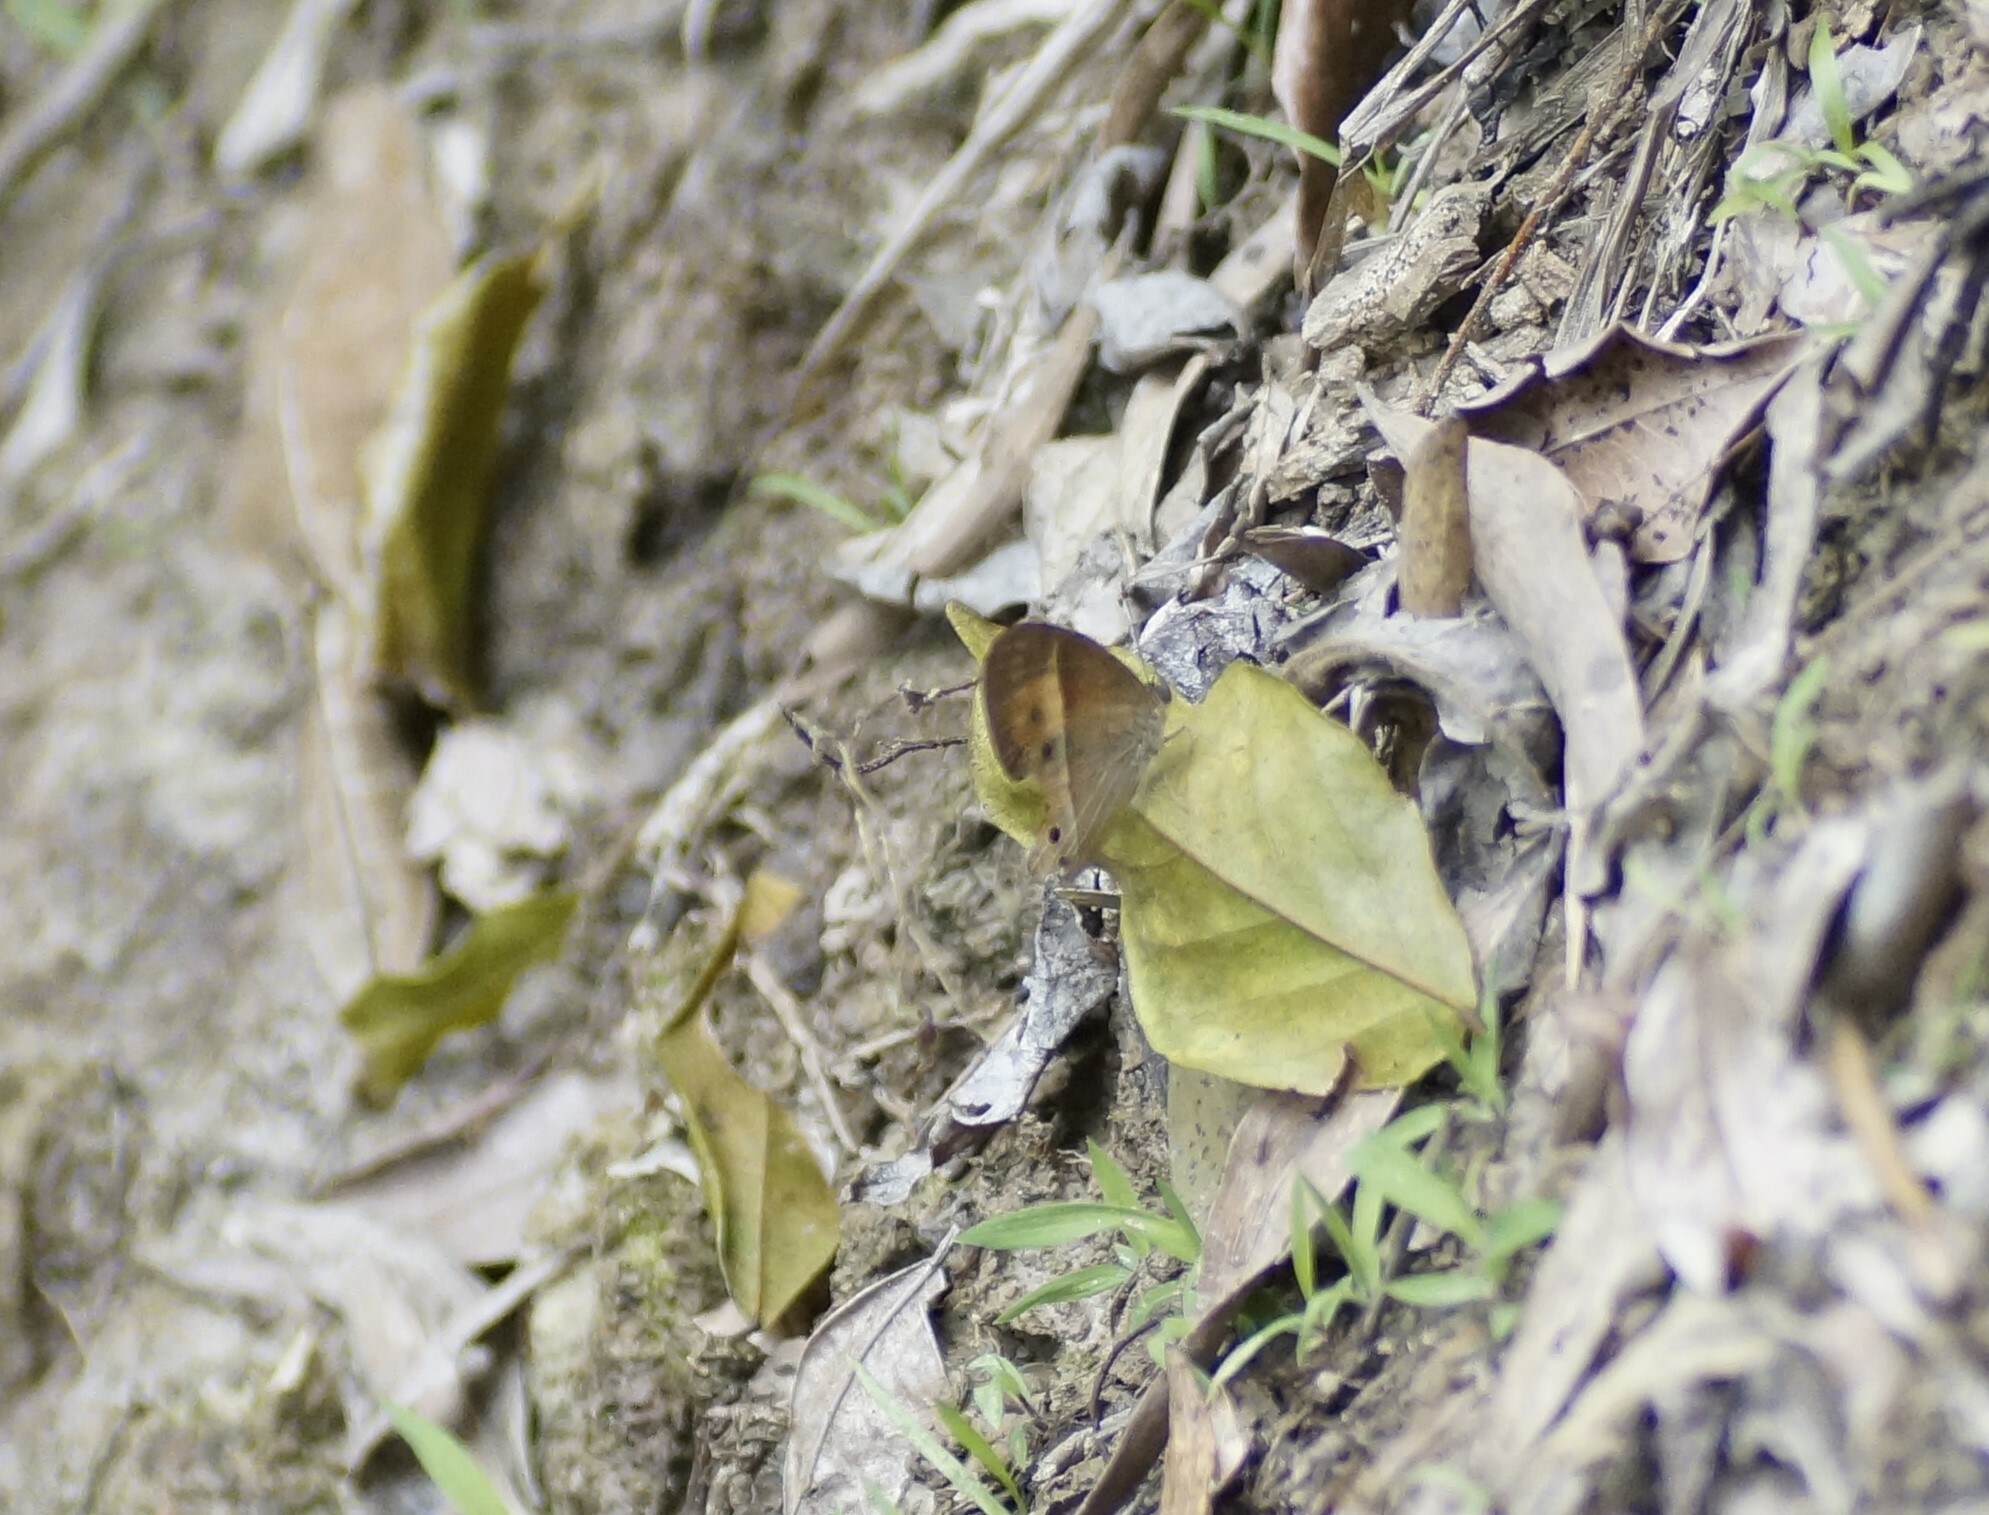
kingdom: Animalia
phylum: Arthropoda
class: Insecta
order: Lepidoptera
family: Nymphalidae
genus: Mycalesis
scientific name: Mycalesis terminus
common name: Orange bushbrown
